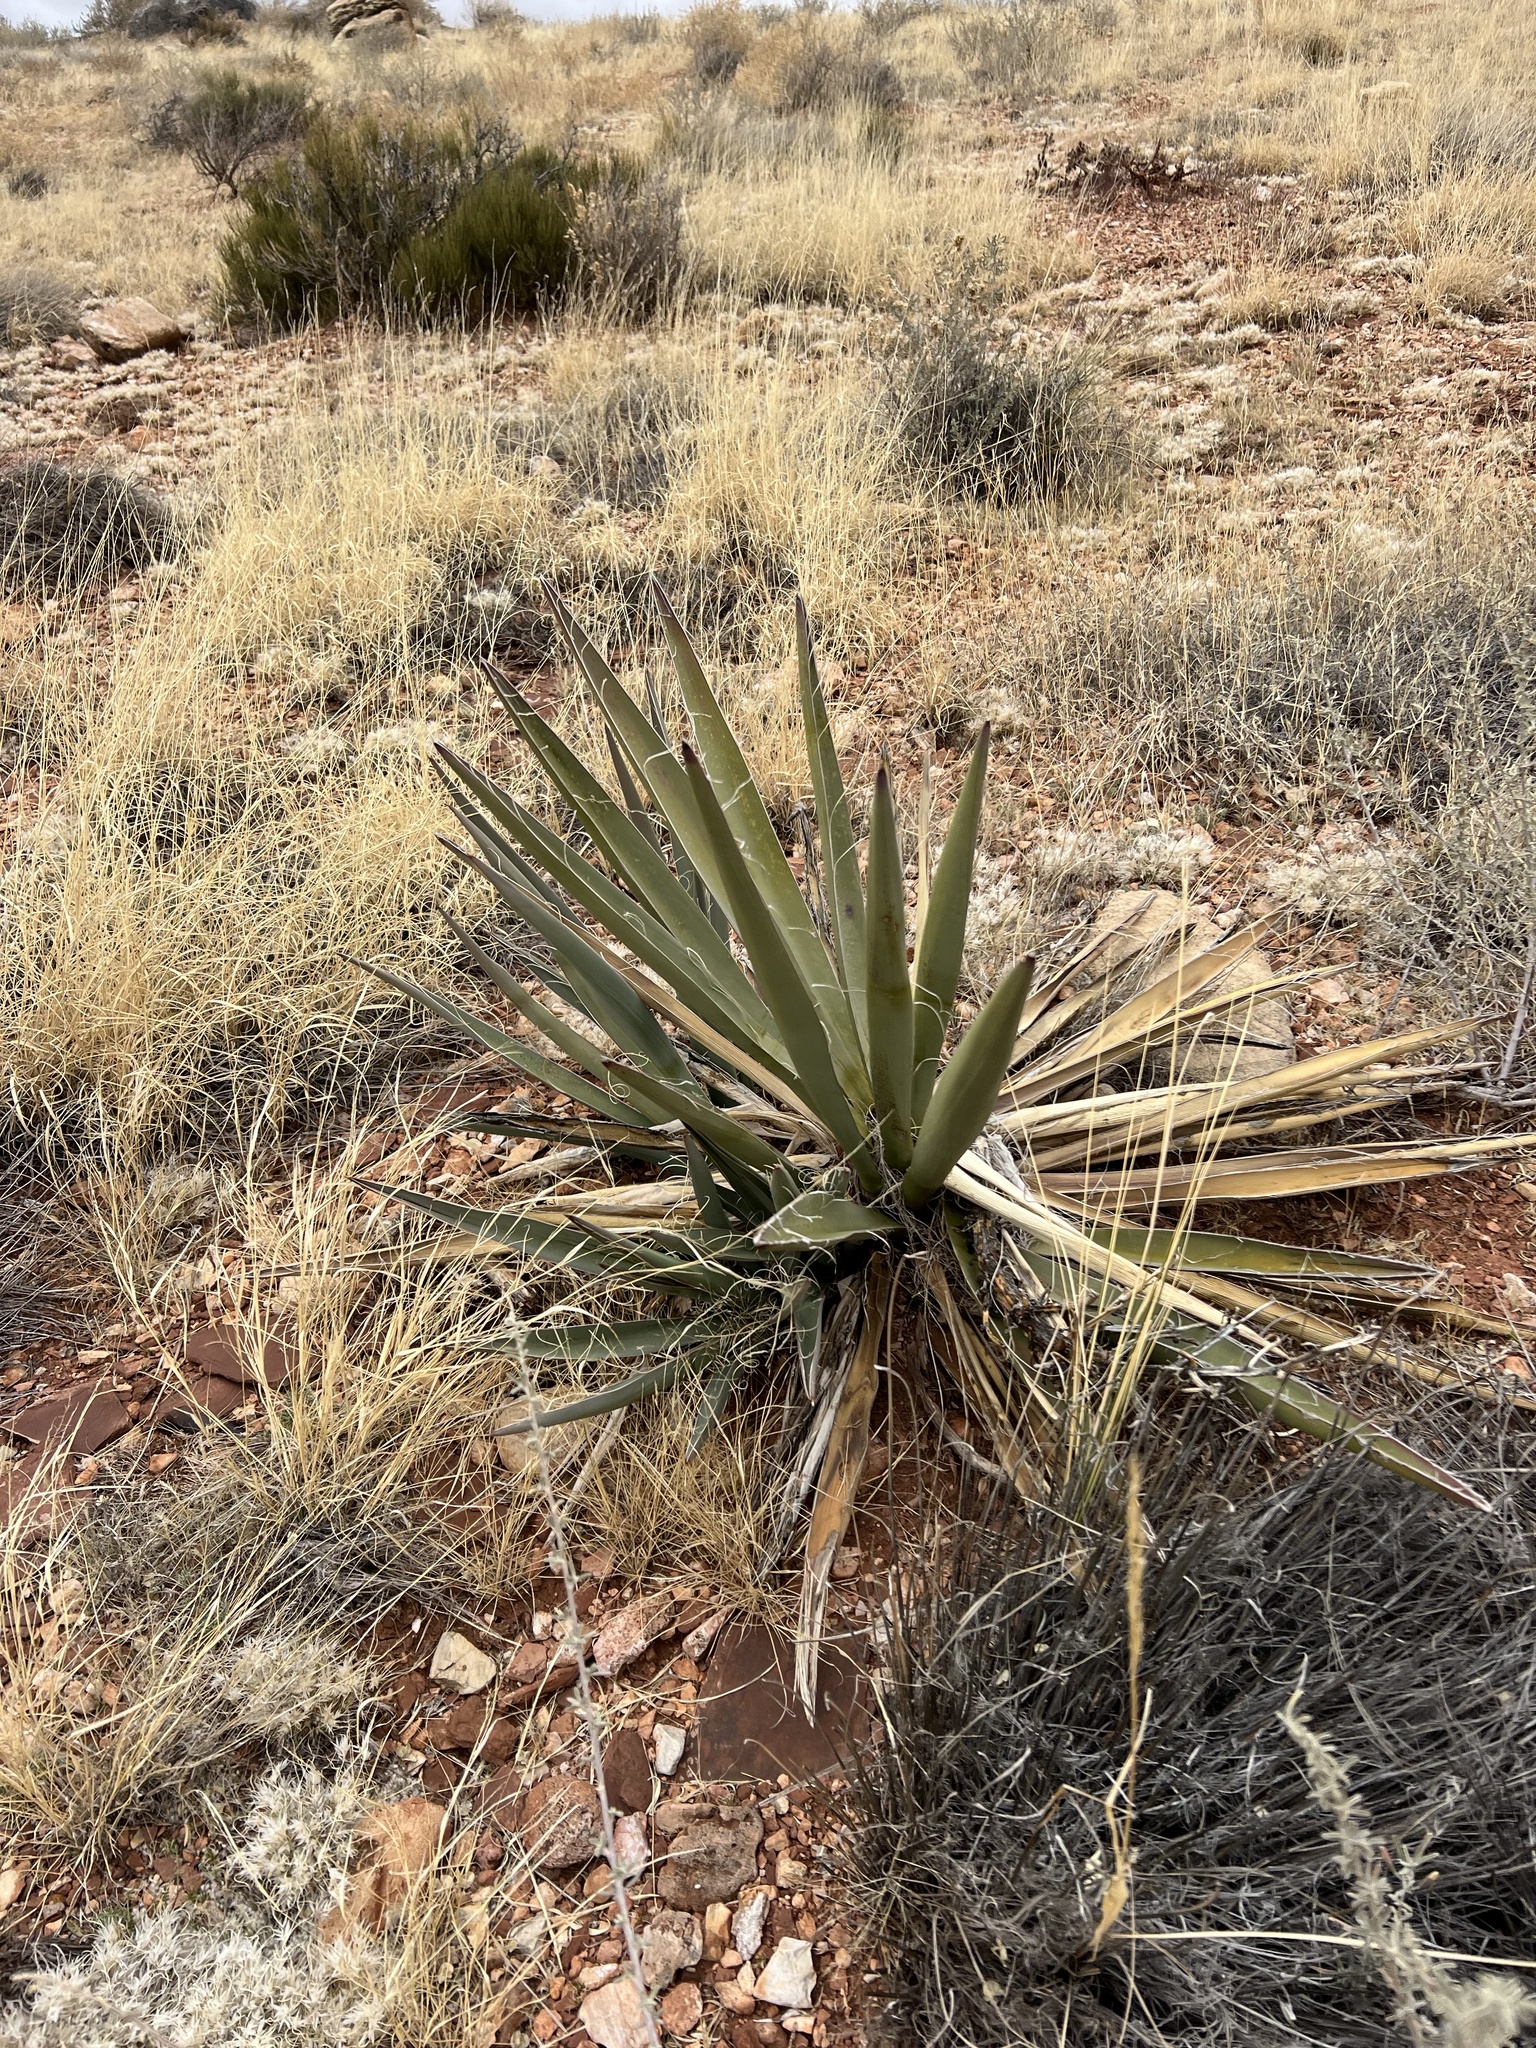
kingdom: Plantae
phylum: Tracheophyta
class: Liliopsida
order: Asparagales
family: Asparagaceae
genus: Yucca
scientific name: Yucca baccata
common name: Banana yucca
